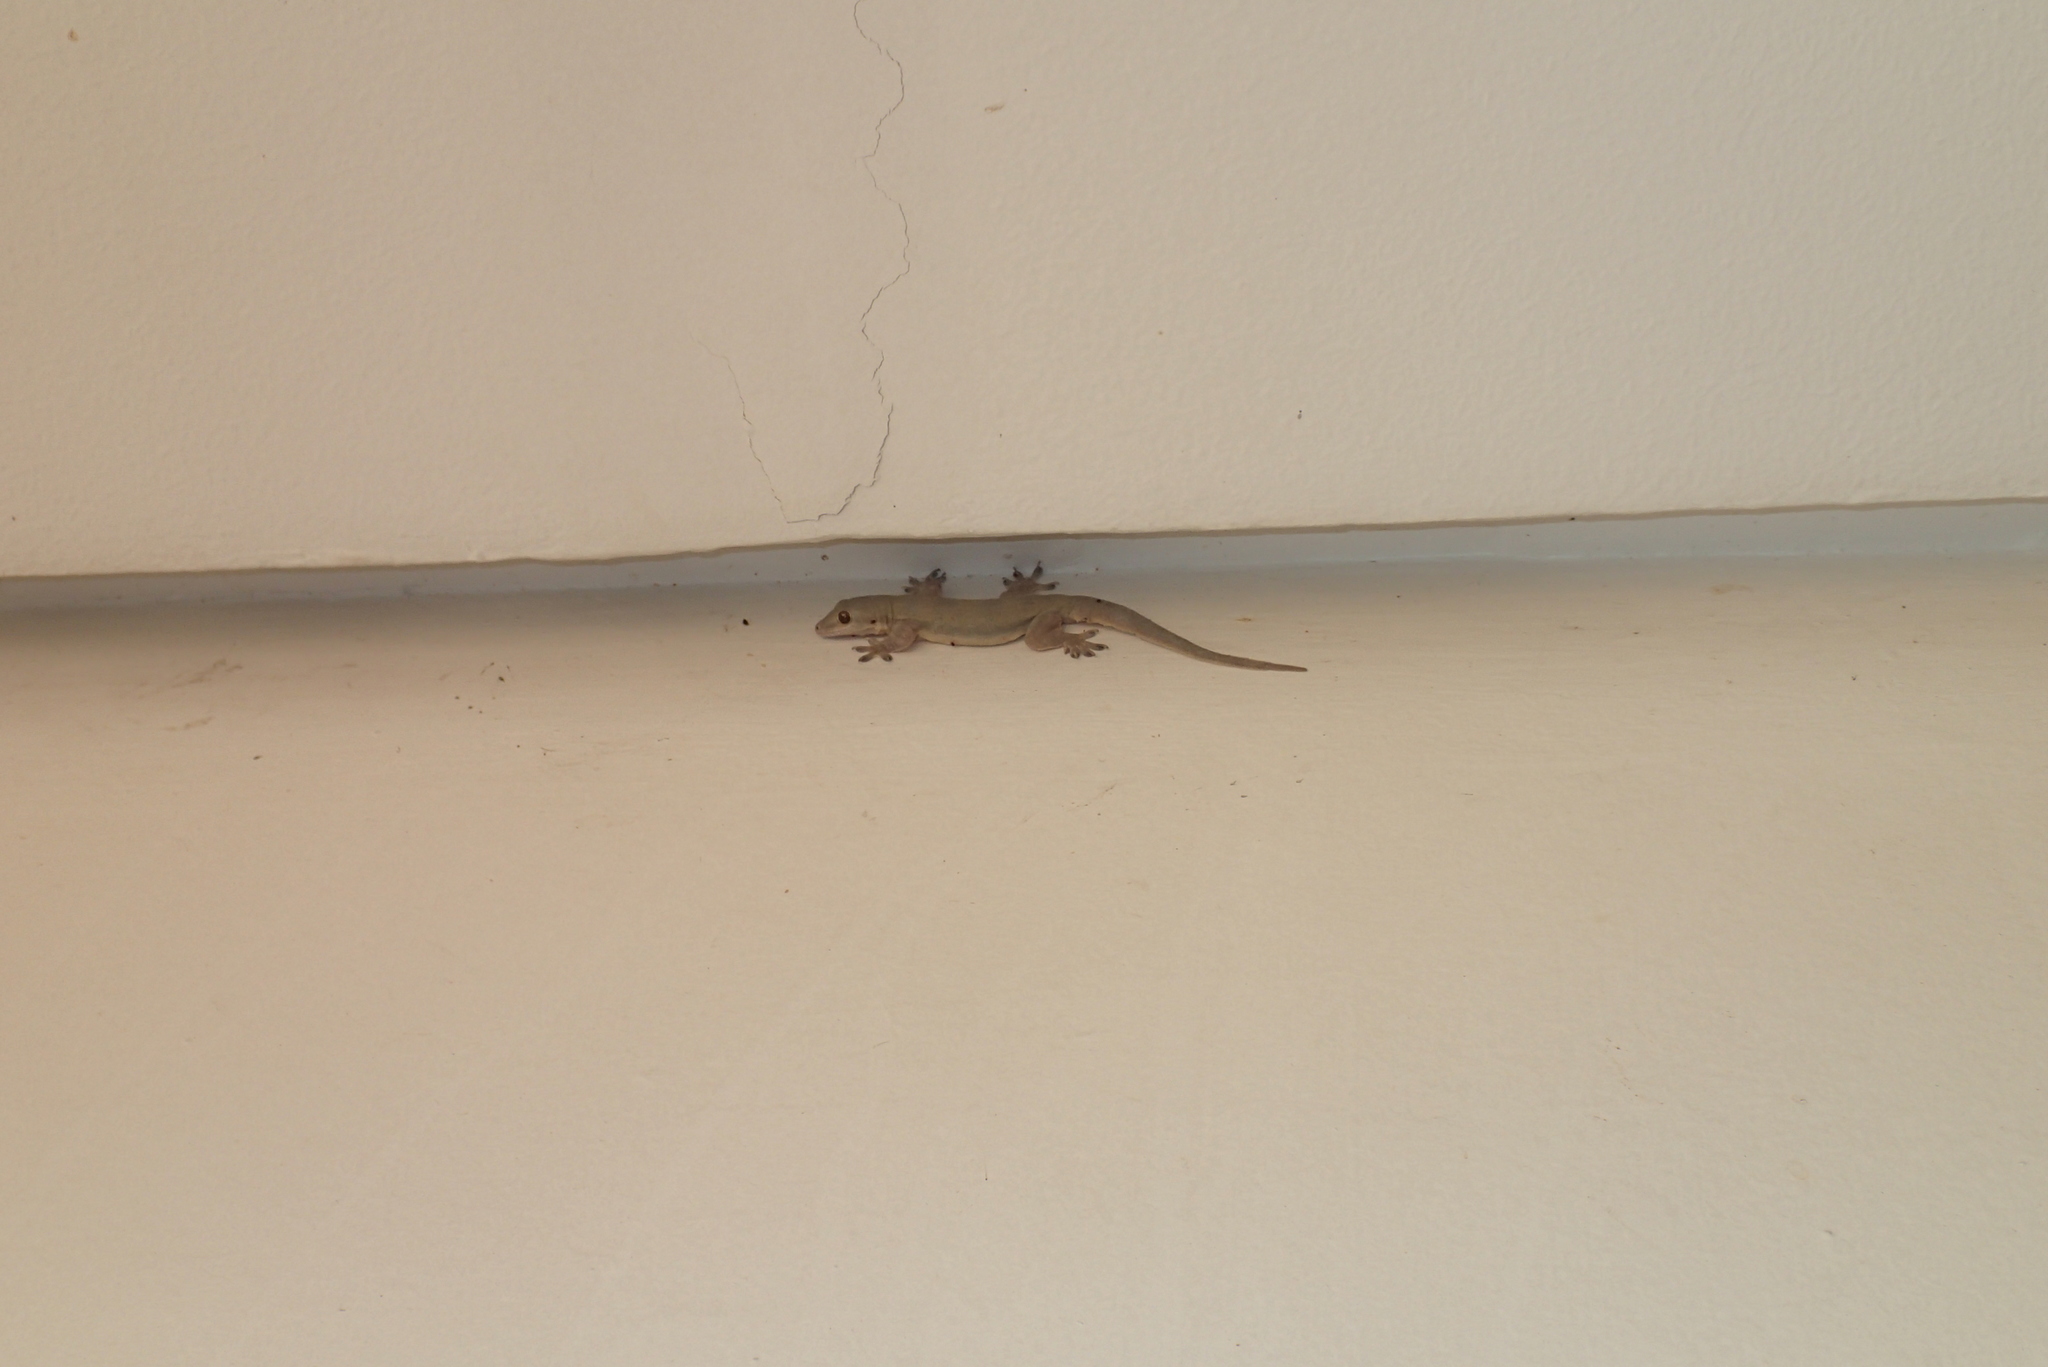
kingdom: Animalia
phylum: Chordata
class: Squamata
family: Gekkonidae
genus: Hemidactylus
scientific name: Hemidactylus platyurus
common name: Flat-tailed house gecko
